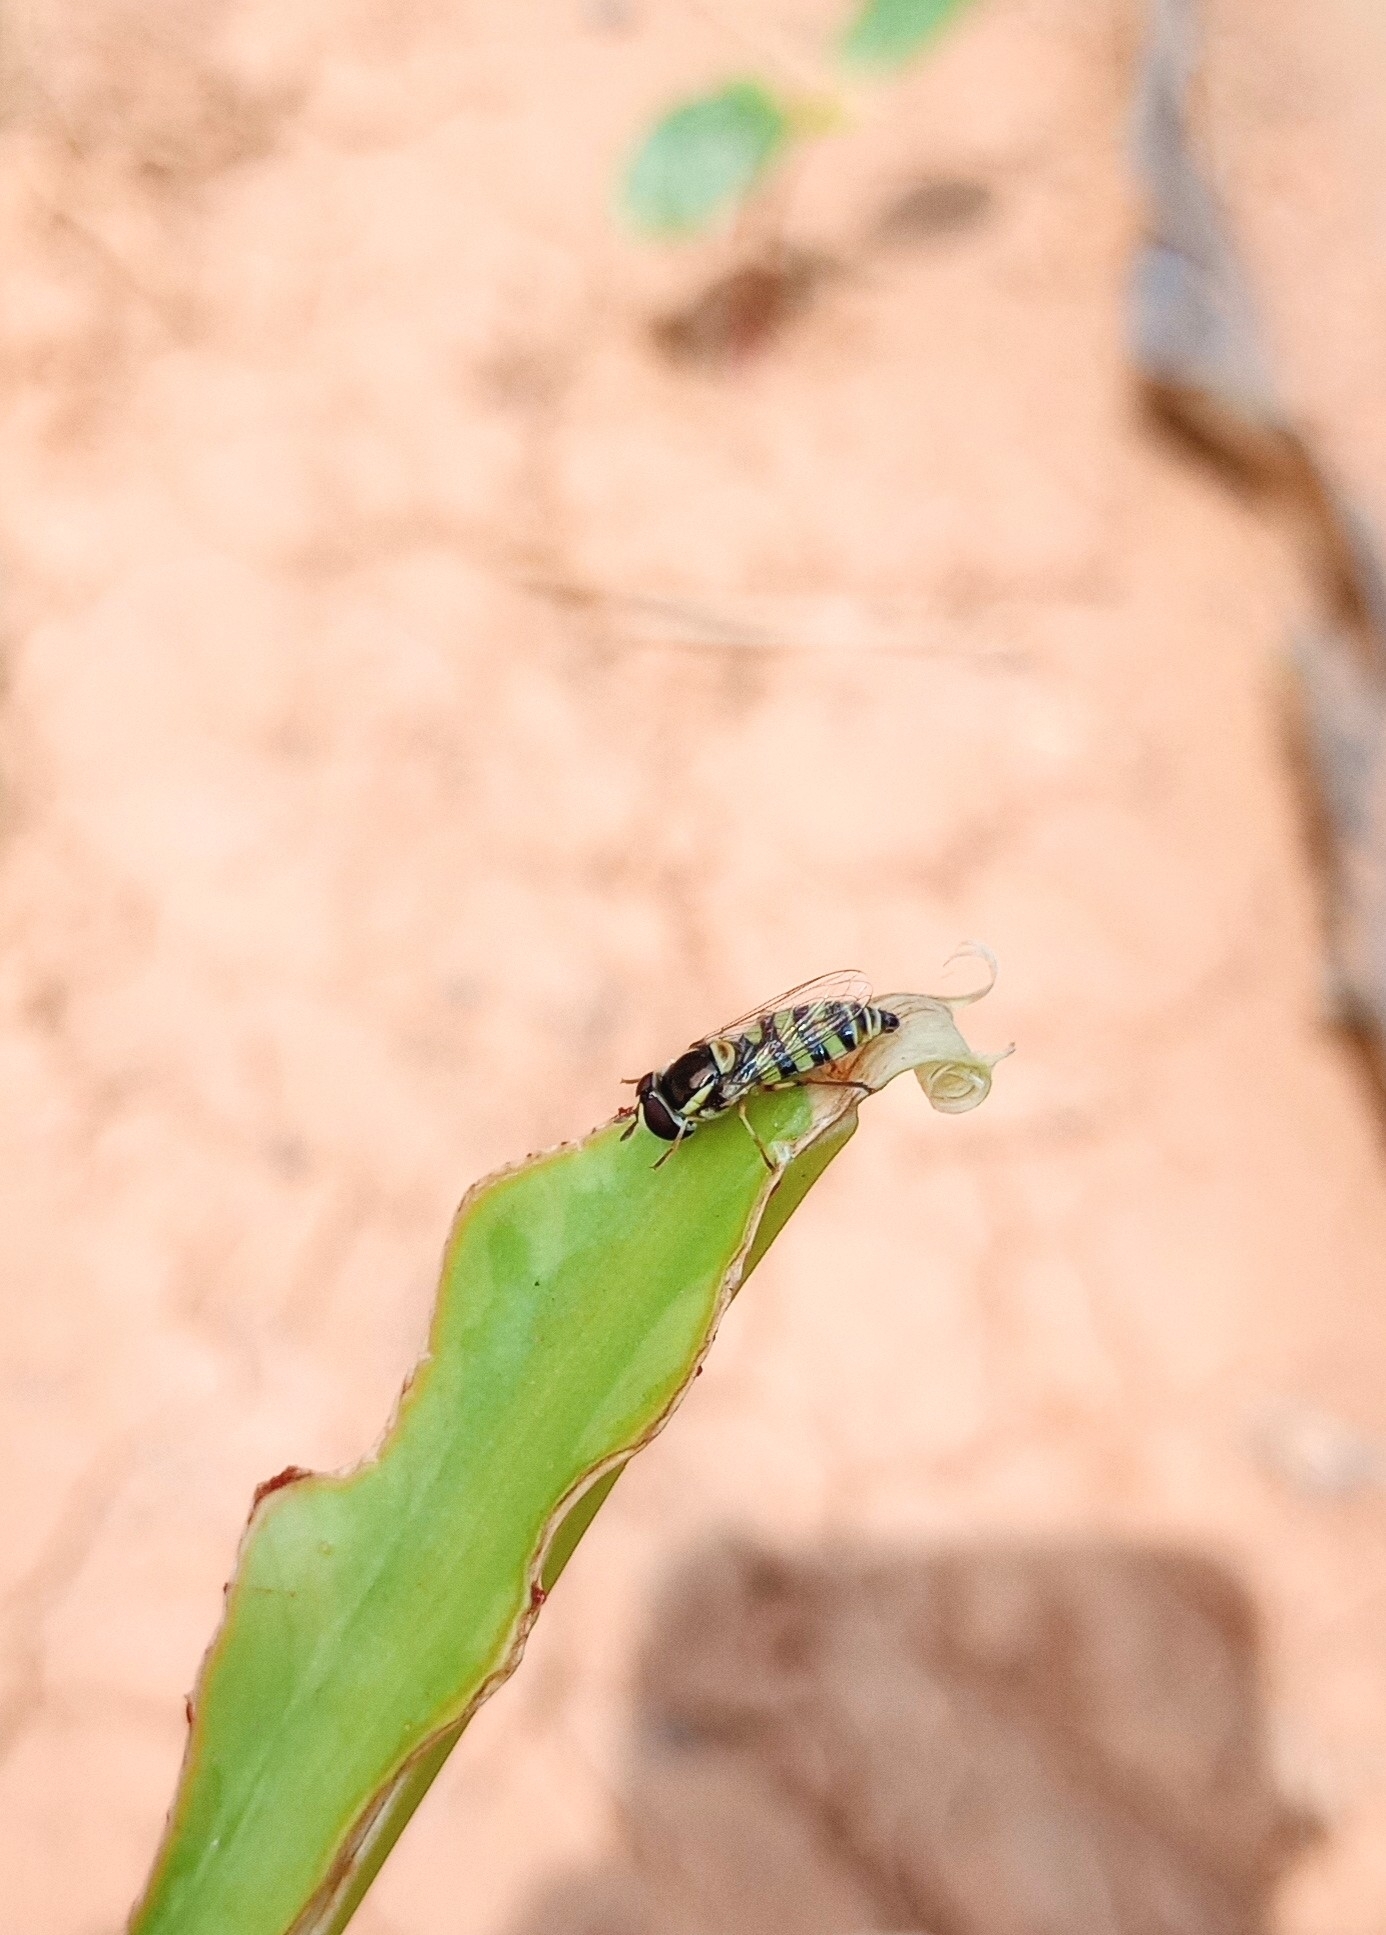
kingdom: Animalia
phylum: Arthropoda
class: Insecta
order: Diptera
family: Syrphidae
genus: Ischiodon
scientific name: Ischiodon scutellaris
